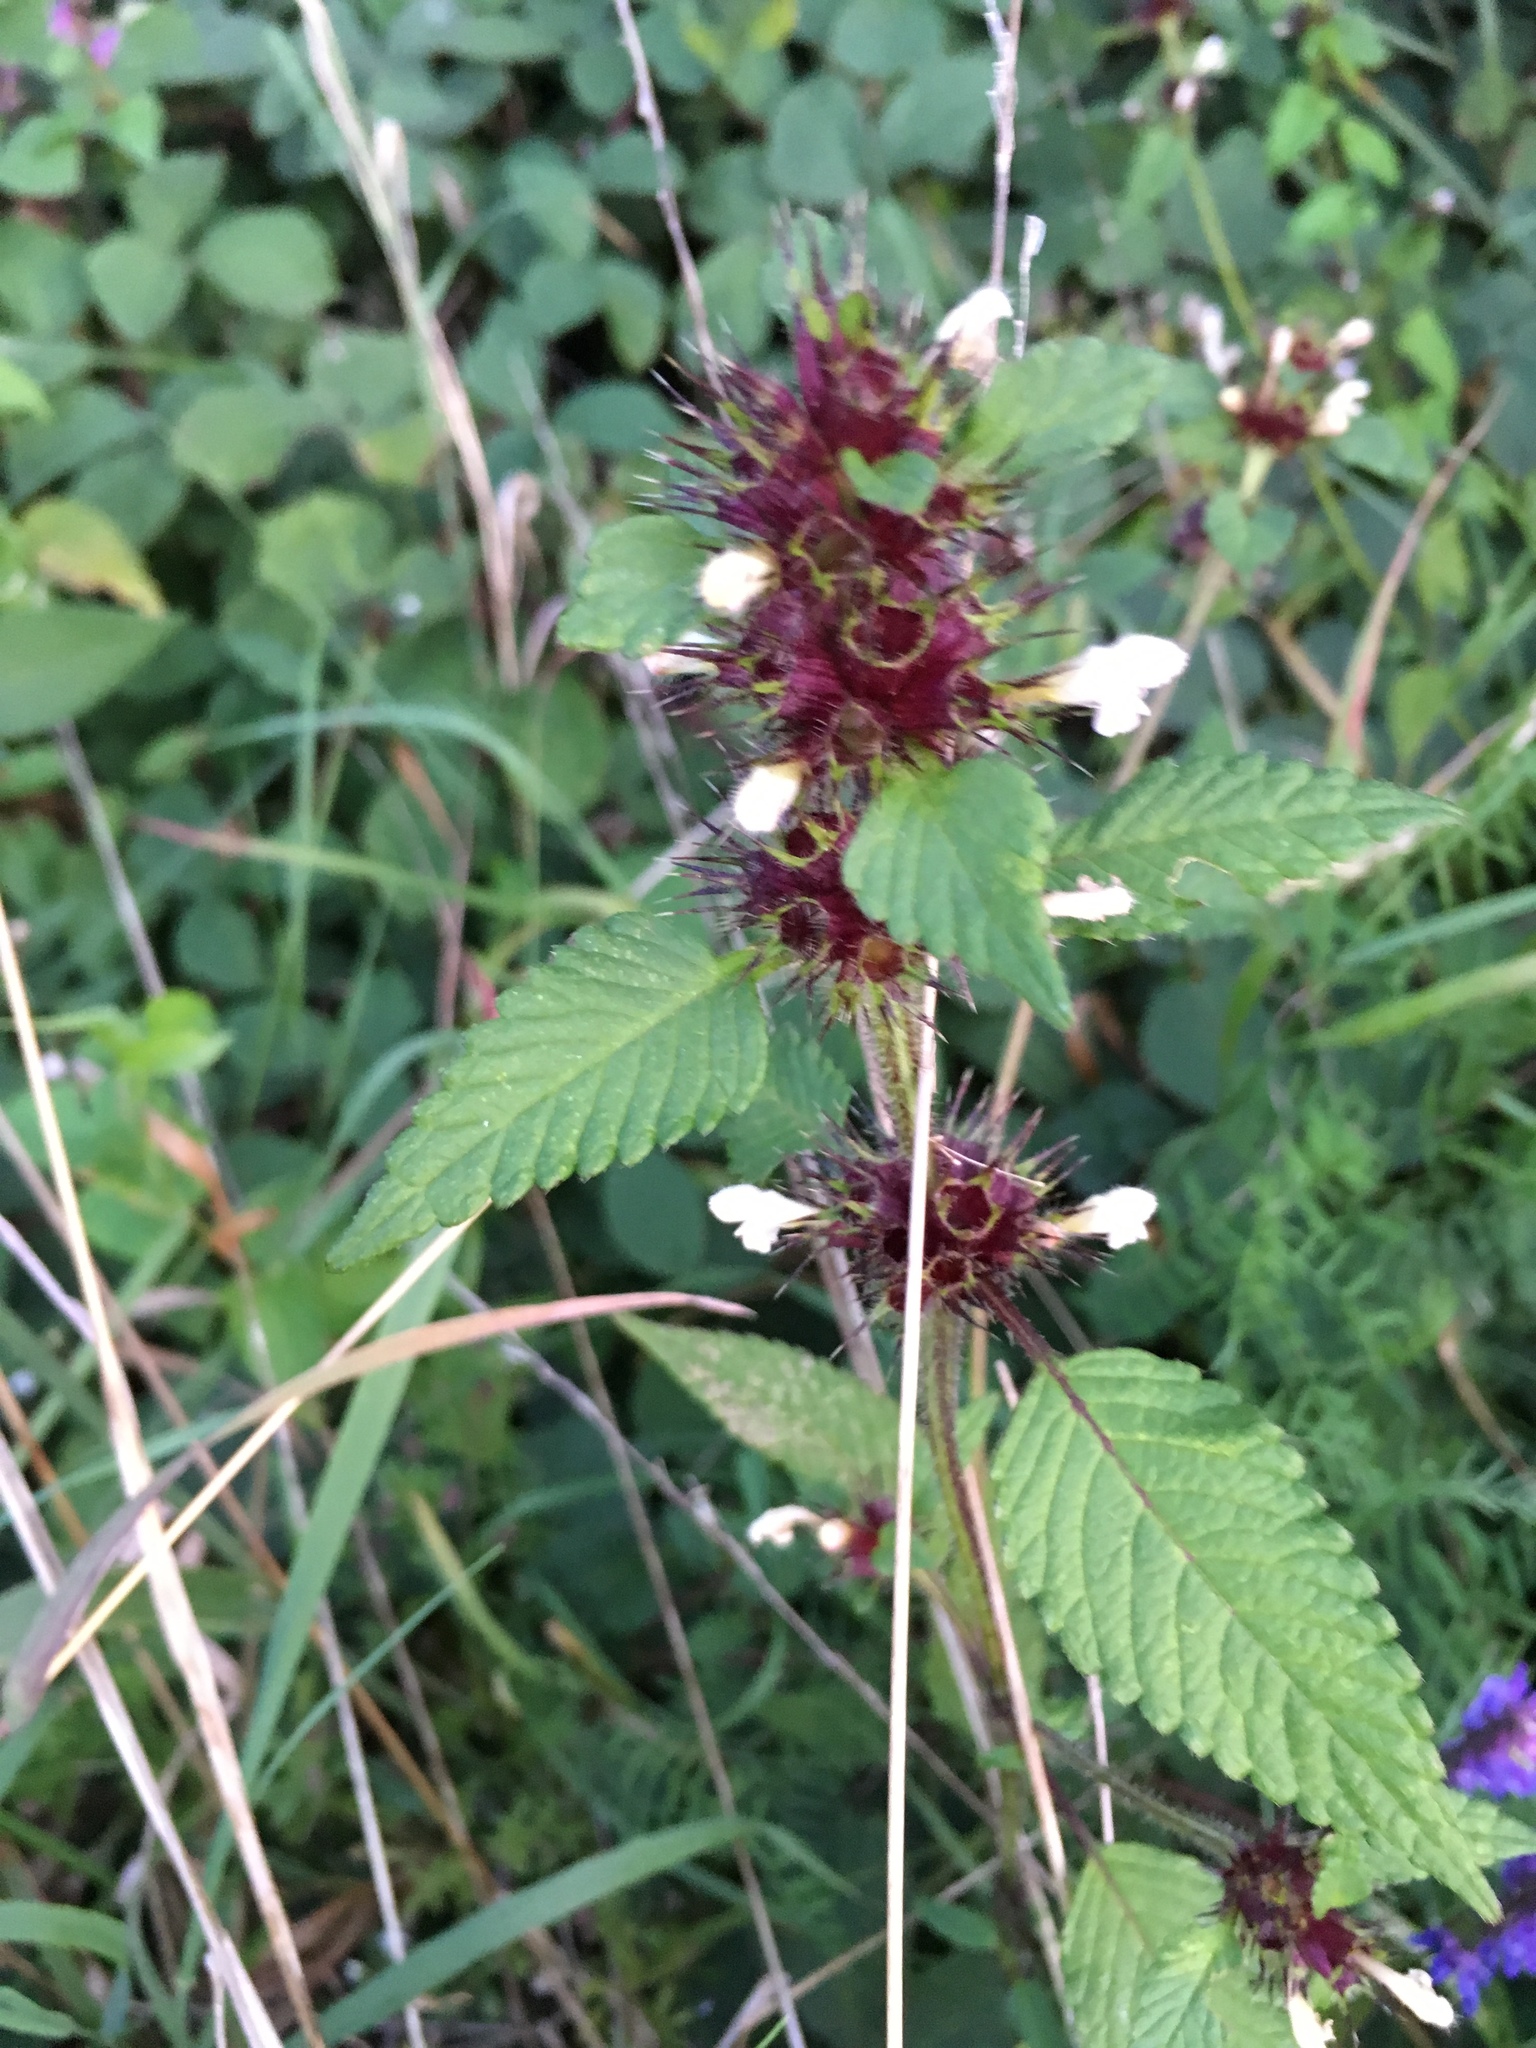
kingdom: Plantae
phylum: Tracheophyta
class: Magnoliopsida
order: Lamiales
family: Lamiaceae
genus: Galeopsis
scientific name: Galeopsis tetrahit
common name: Common hemp-nettle
